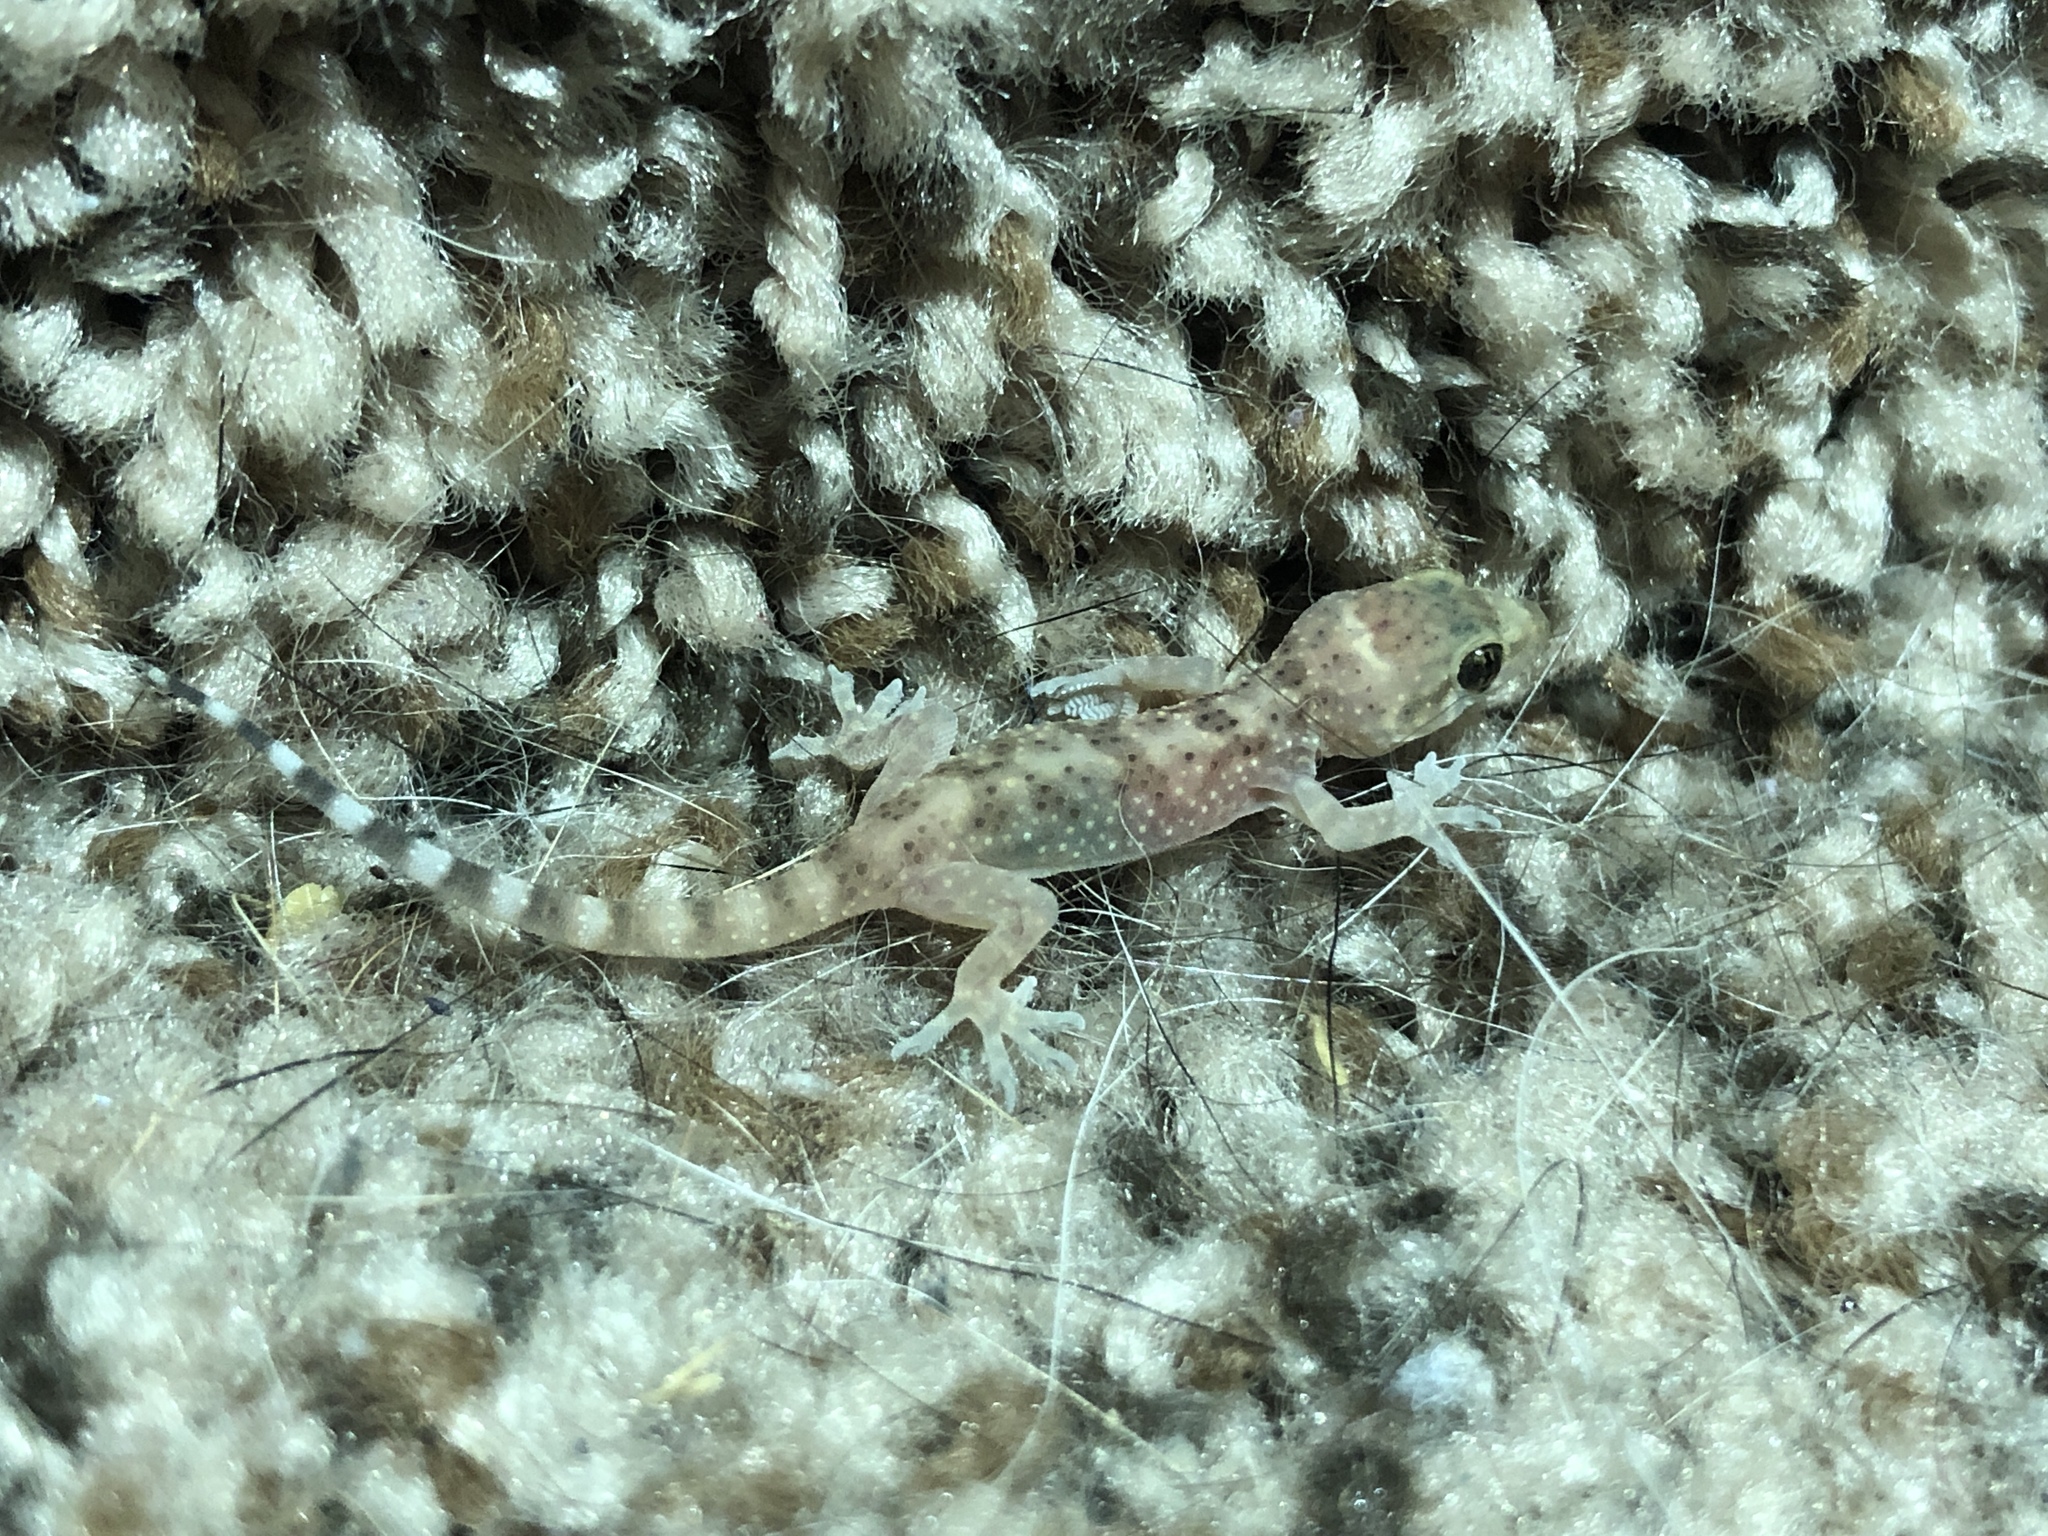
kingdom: Animalia
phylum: Chordata
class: Squamata
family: Gekkonidae
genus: Hemidactylus
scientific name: Hemidactylus turcicus
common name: Turkish gecko
